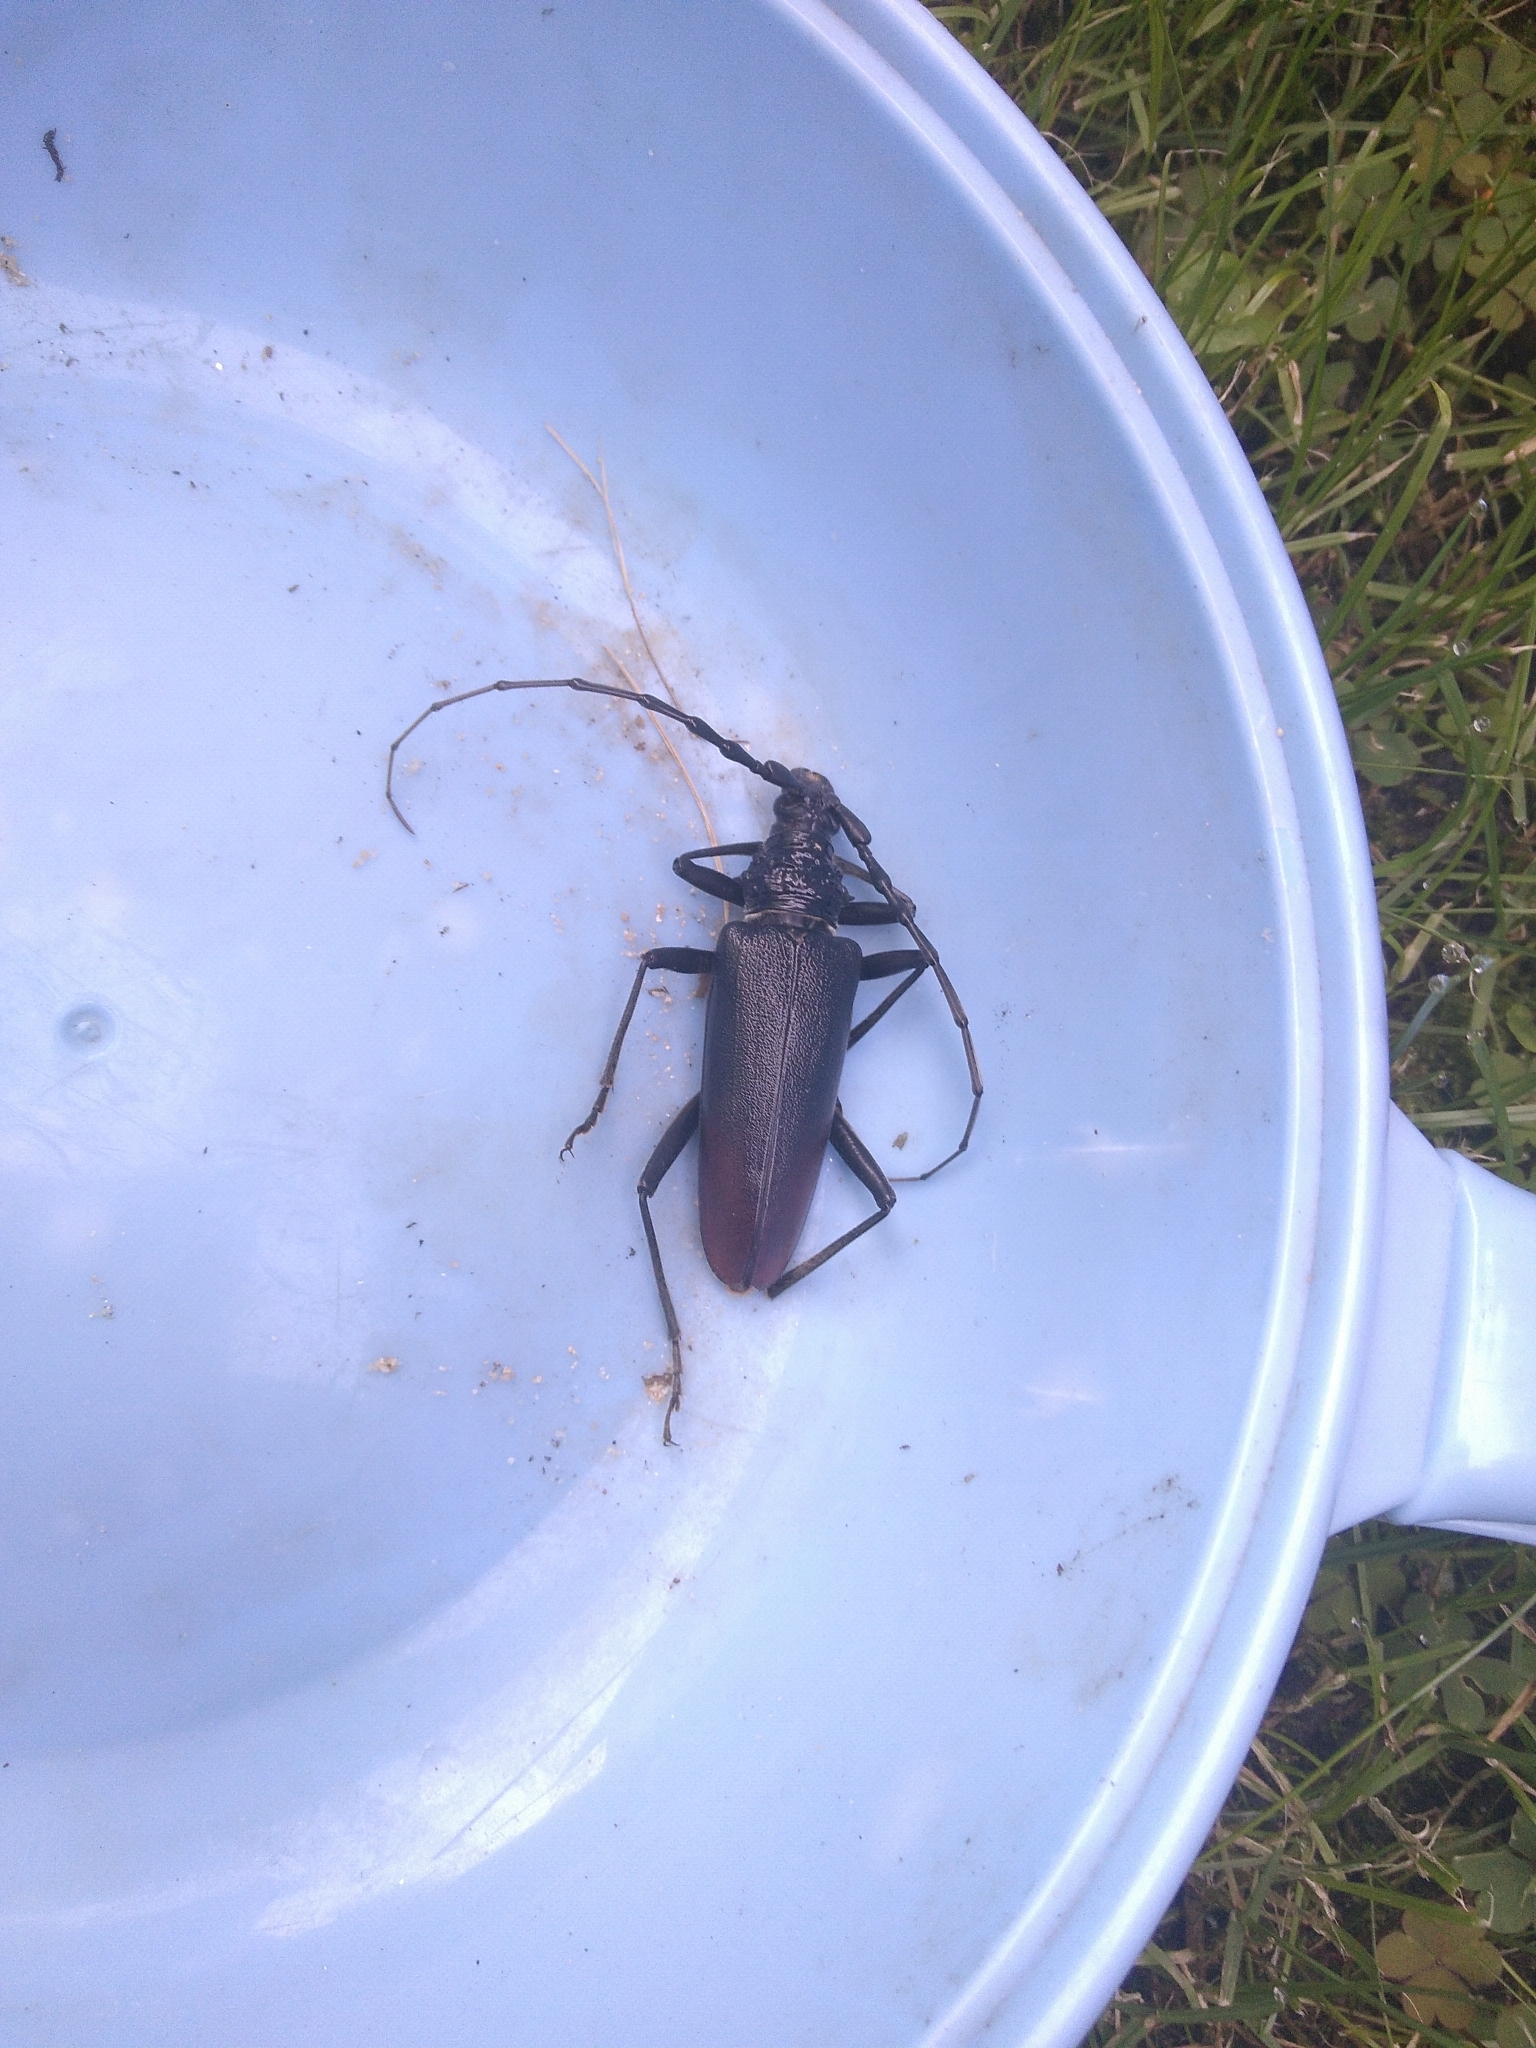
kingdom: Animalia
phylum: Arthropoda
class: Insecta
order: Coleoptera
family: Cerambycidae
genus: Cerambyx
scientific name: Cerambyx cerdo
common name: Cerambyx longicorn
